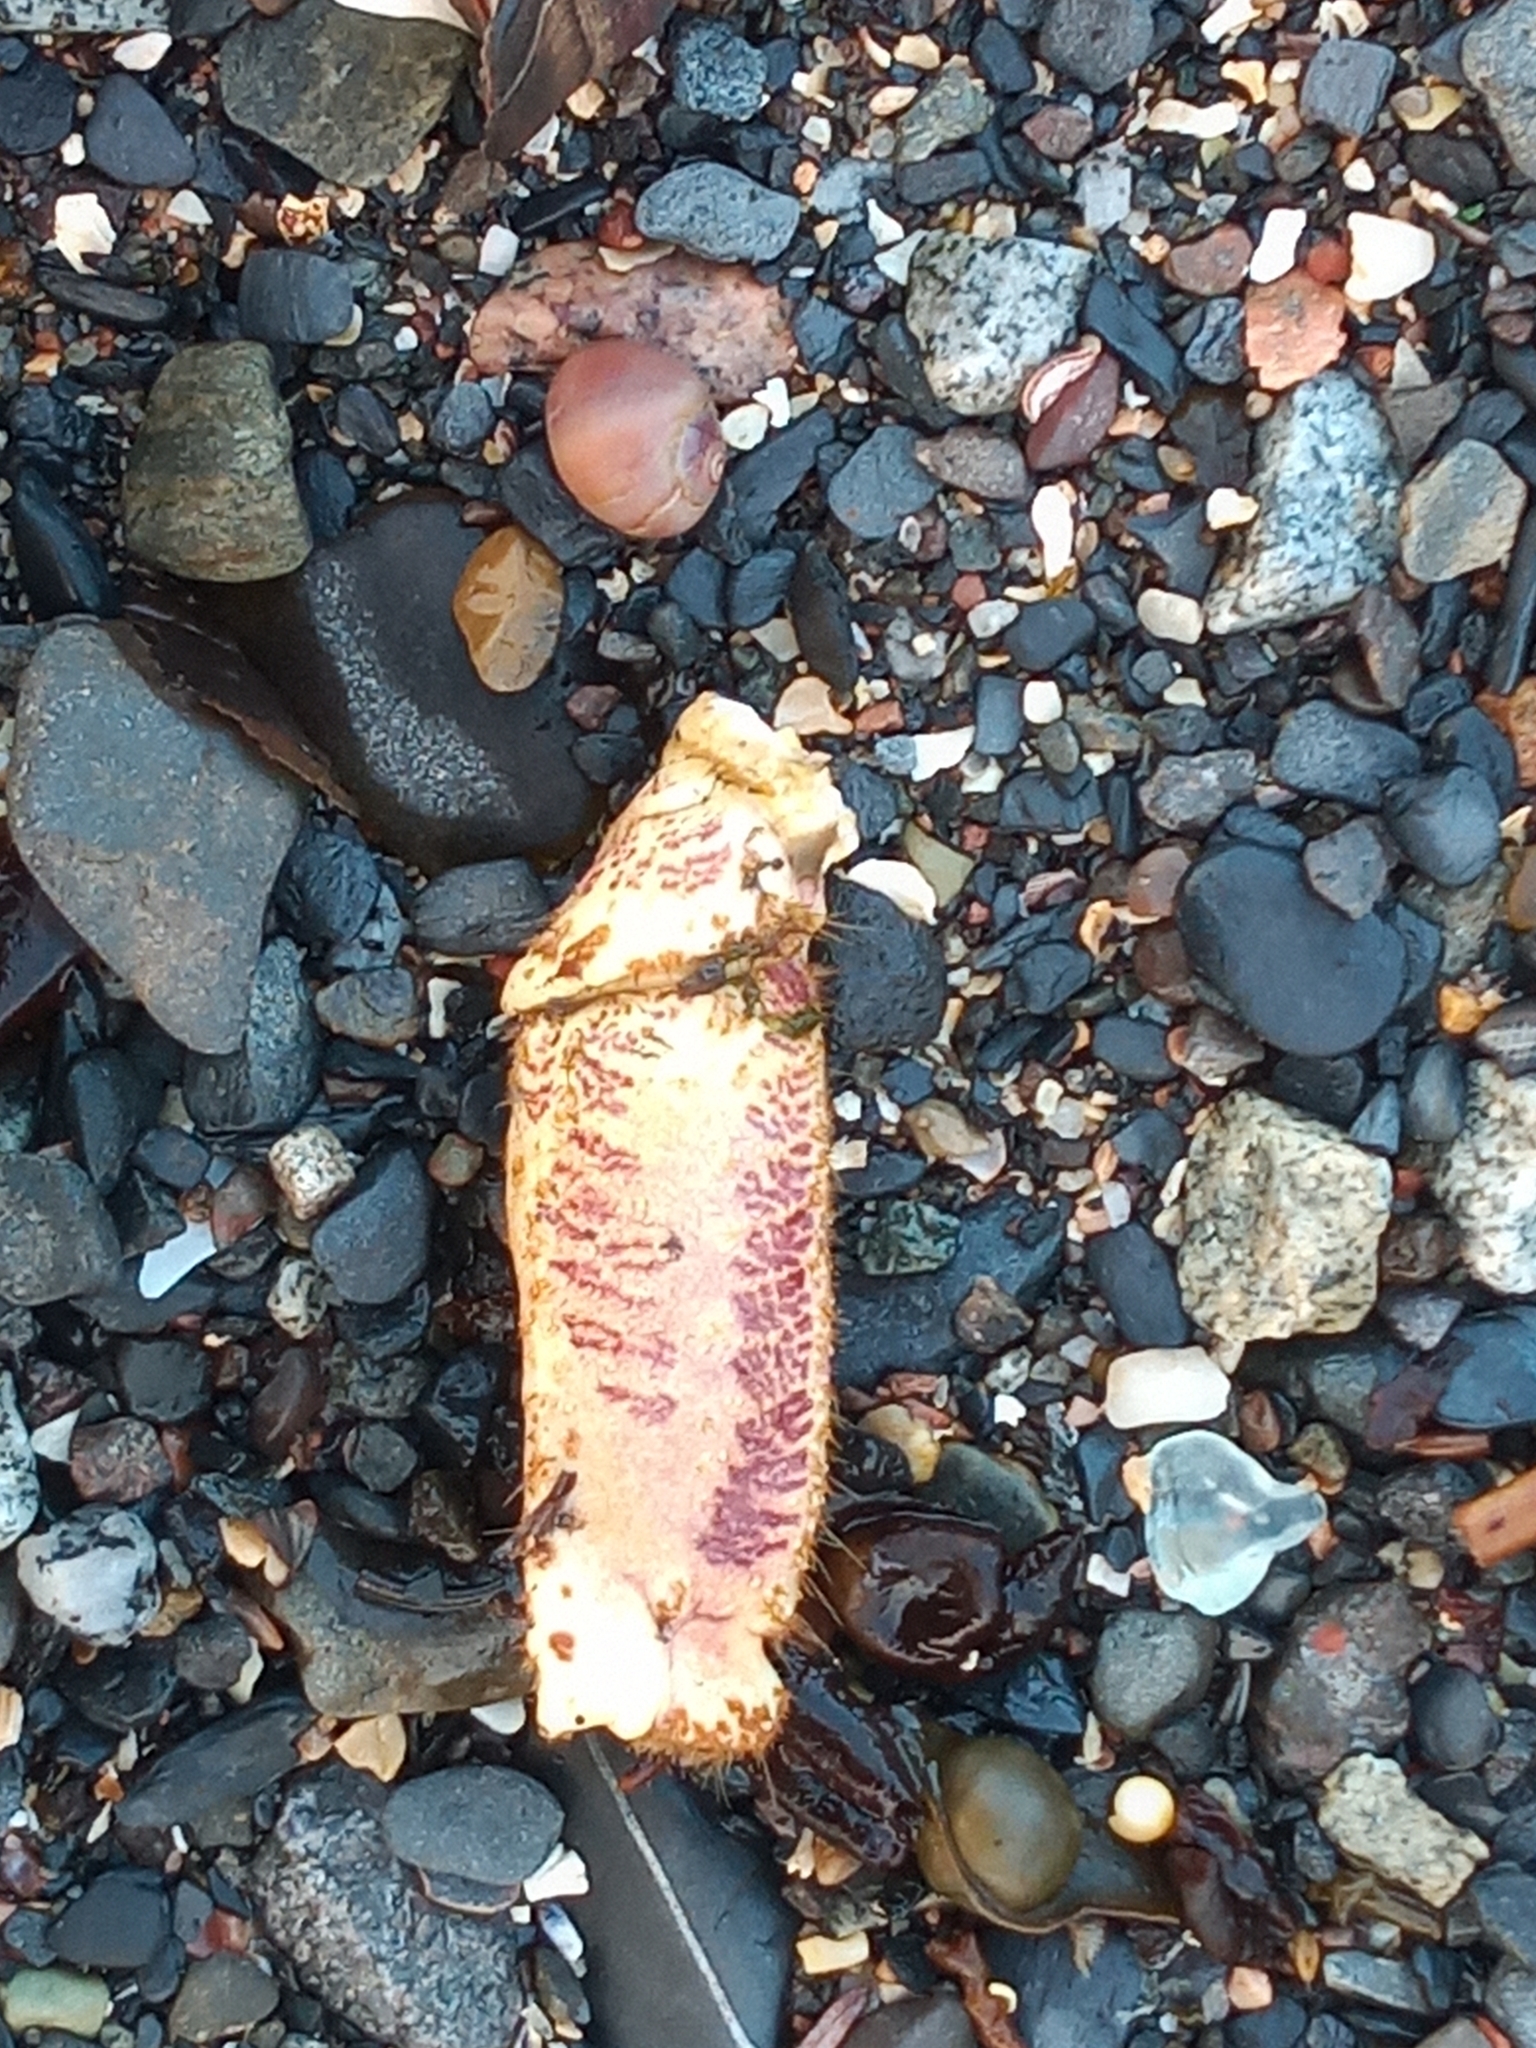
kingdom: Animalia
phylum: Arthropoda
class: Malacostraca
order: Decapoda
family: Cancridae
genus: Cancer
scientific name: Cancer pagurus
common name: Edible crab
